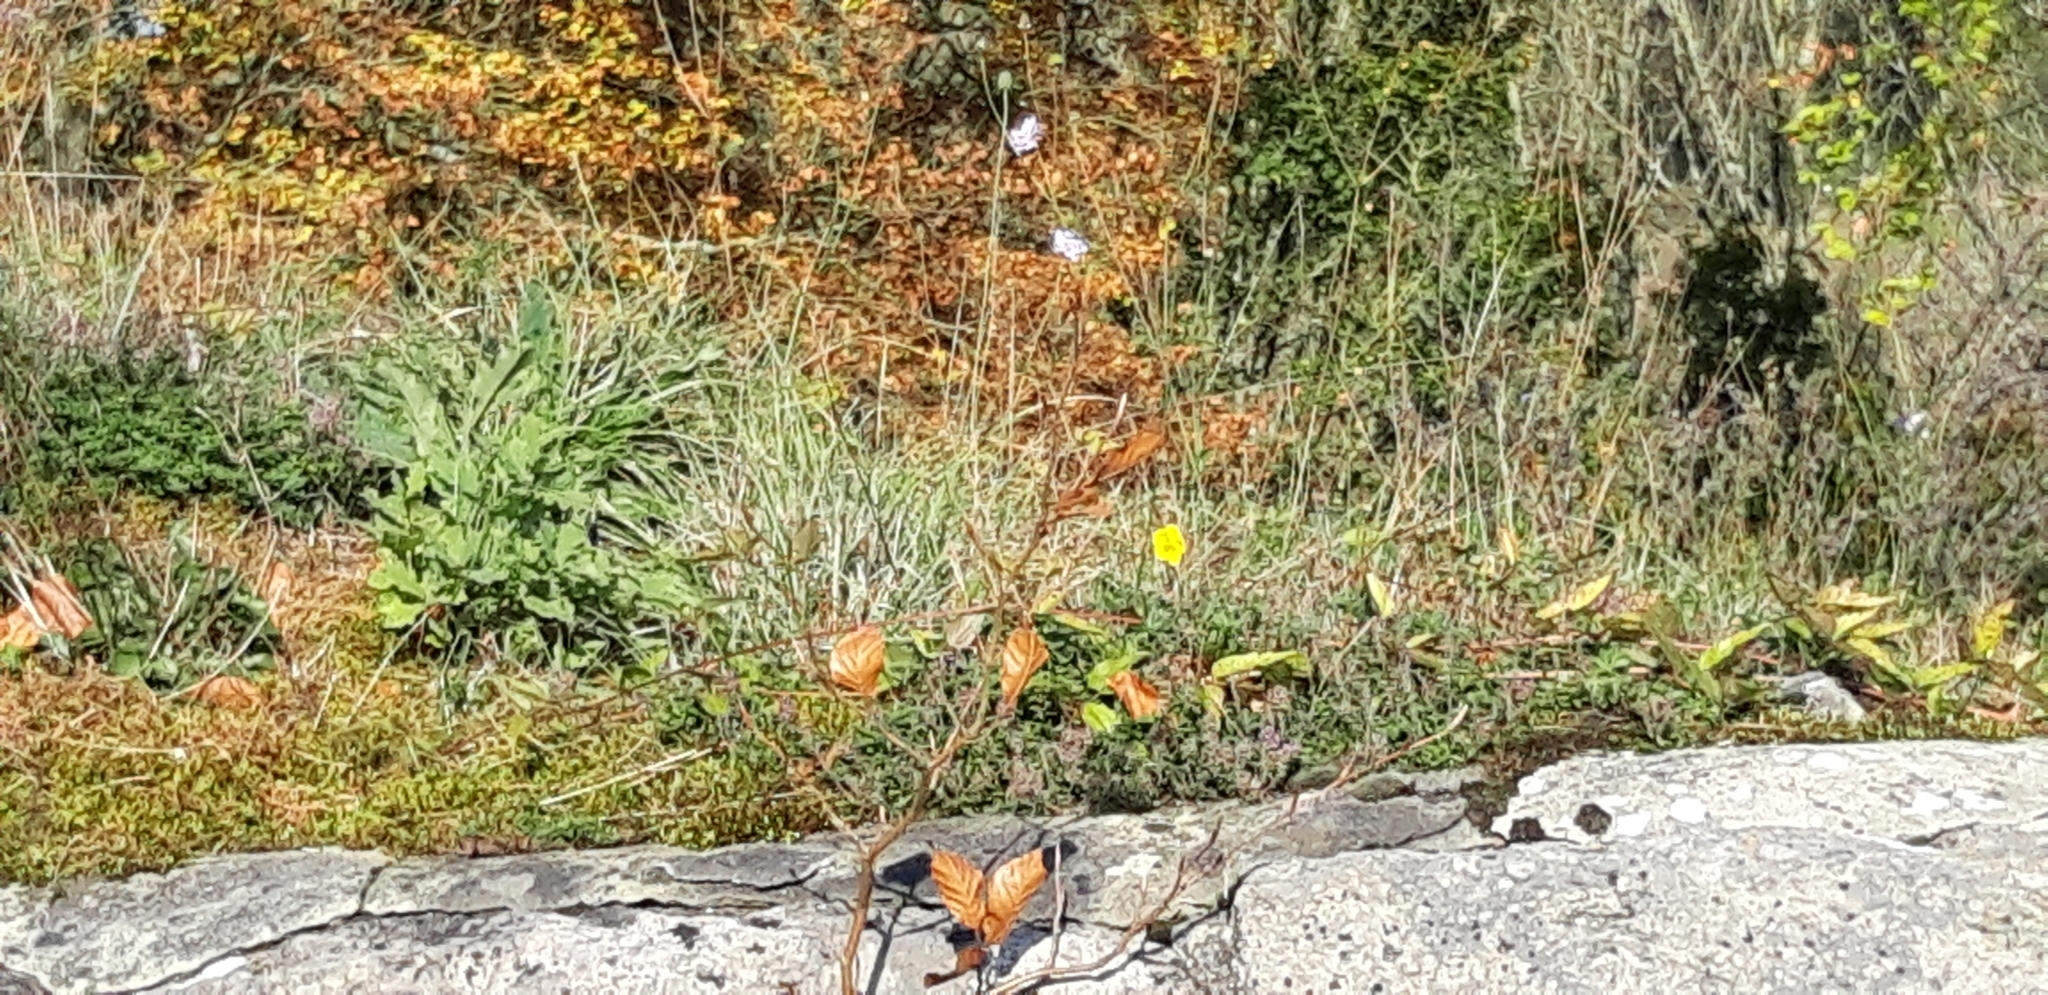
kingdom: Plantae
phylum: Tracheophyta
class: Magnoliopsida
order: Malvales
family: Cistaceae
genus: Helianthemum
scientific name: Helianthemum nummularium
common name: Common rock-rose
